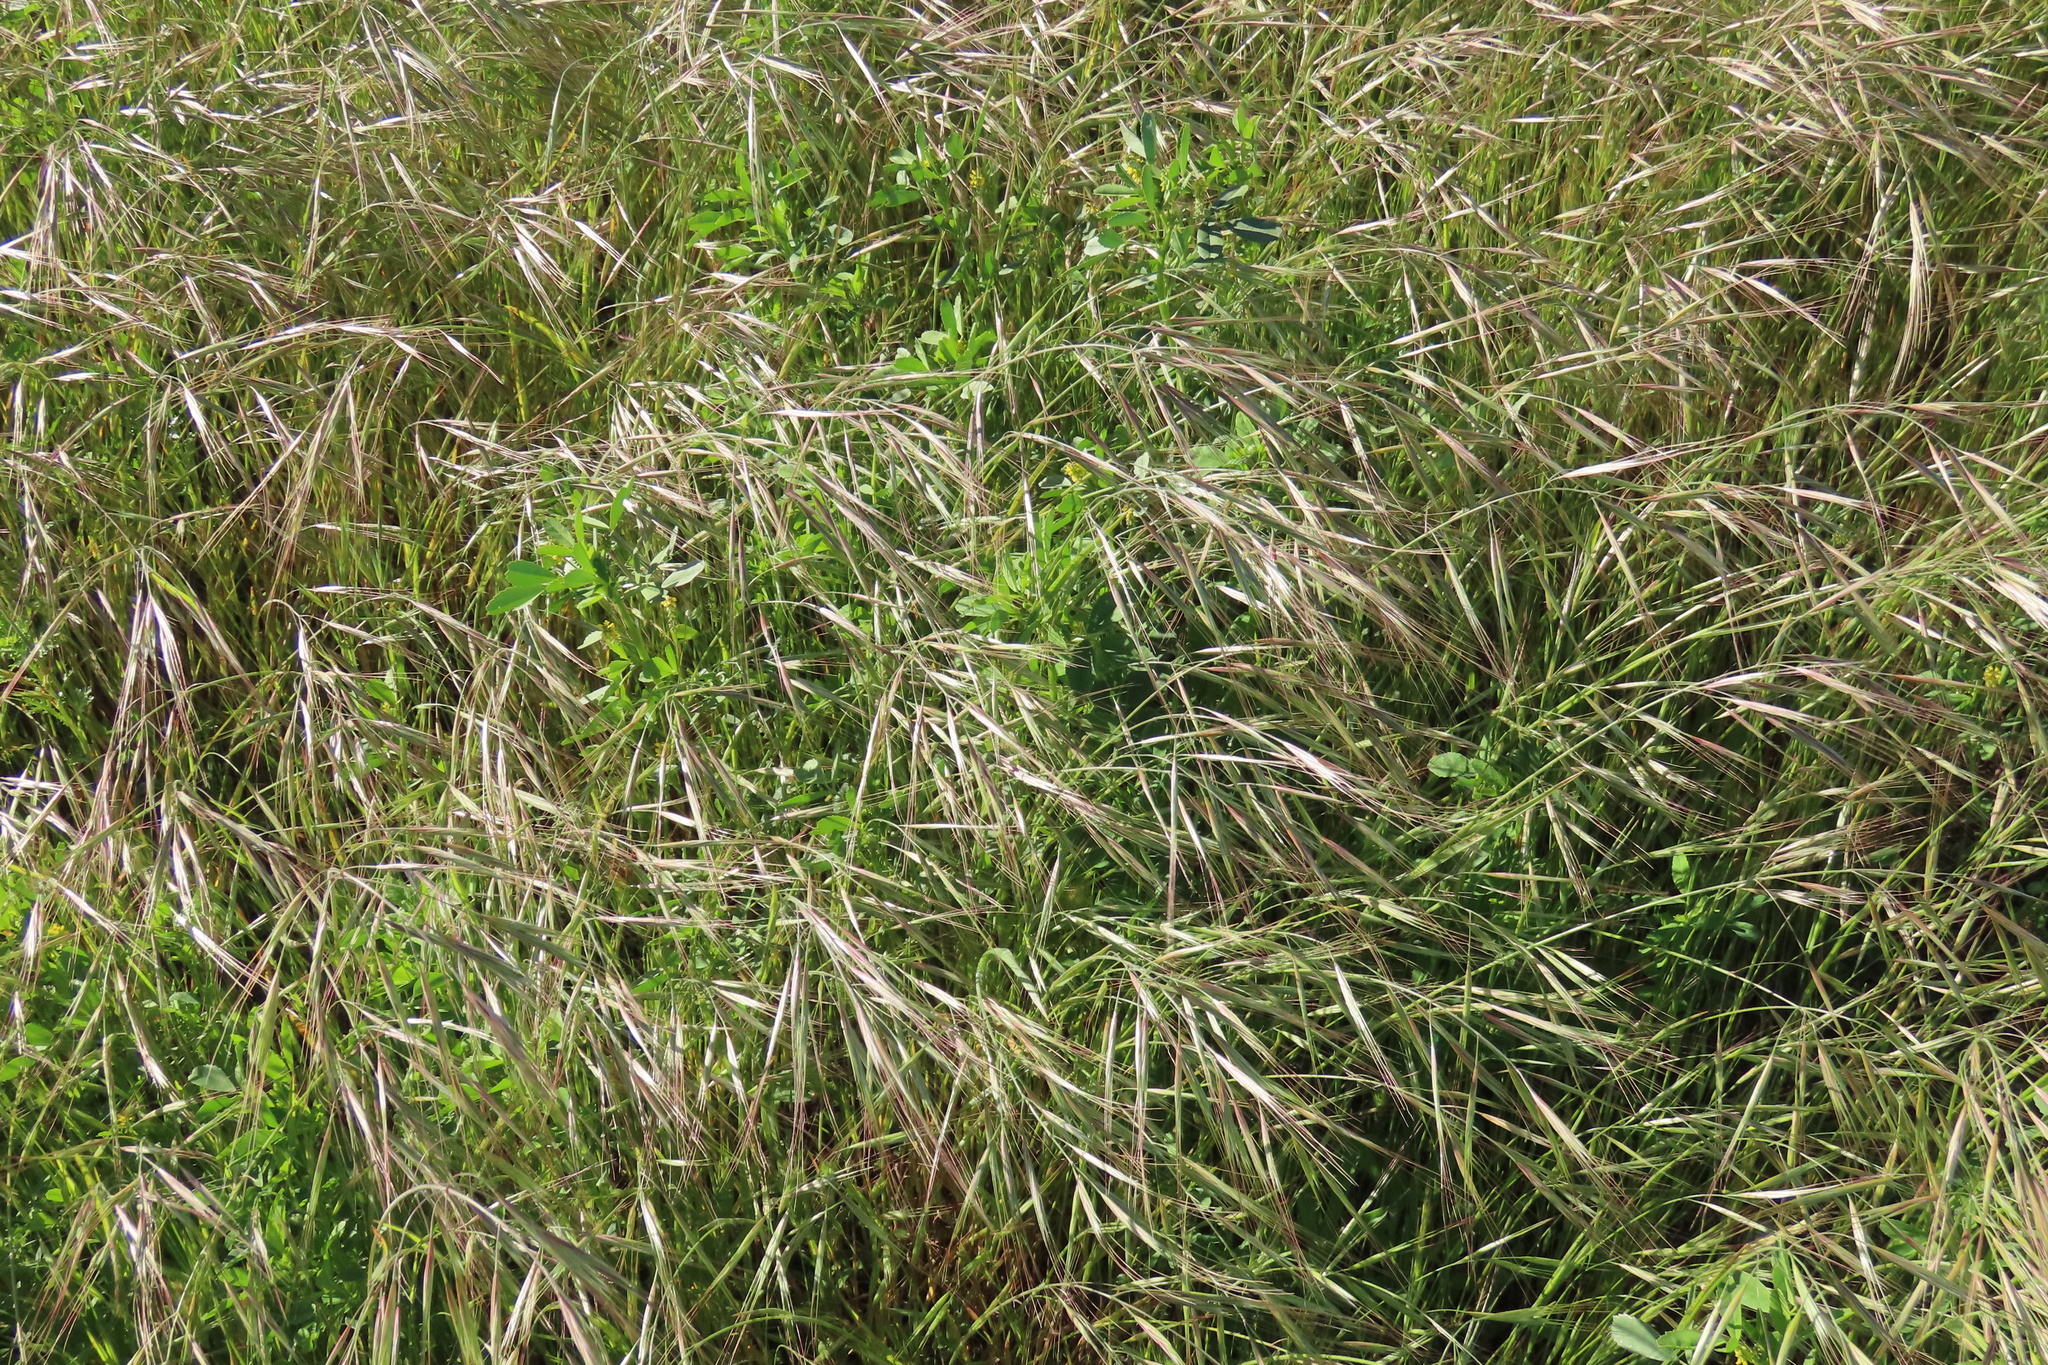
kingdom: Plantae
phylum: Tracheophyta
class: Liliopsida
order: Poales
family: Poaceae
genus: Bromus
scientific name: Bromus diandrus
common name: Ripgut brome
